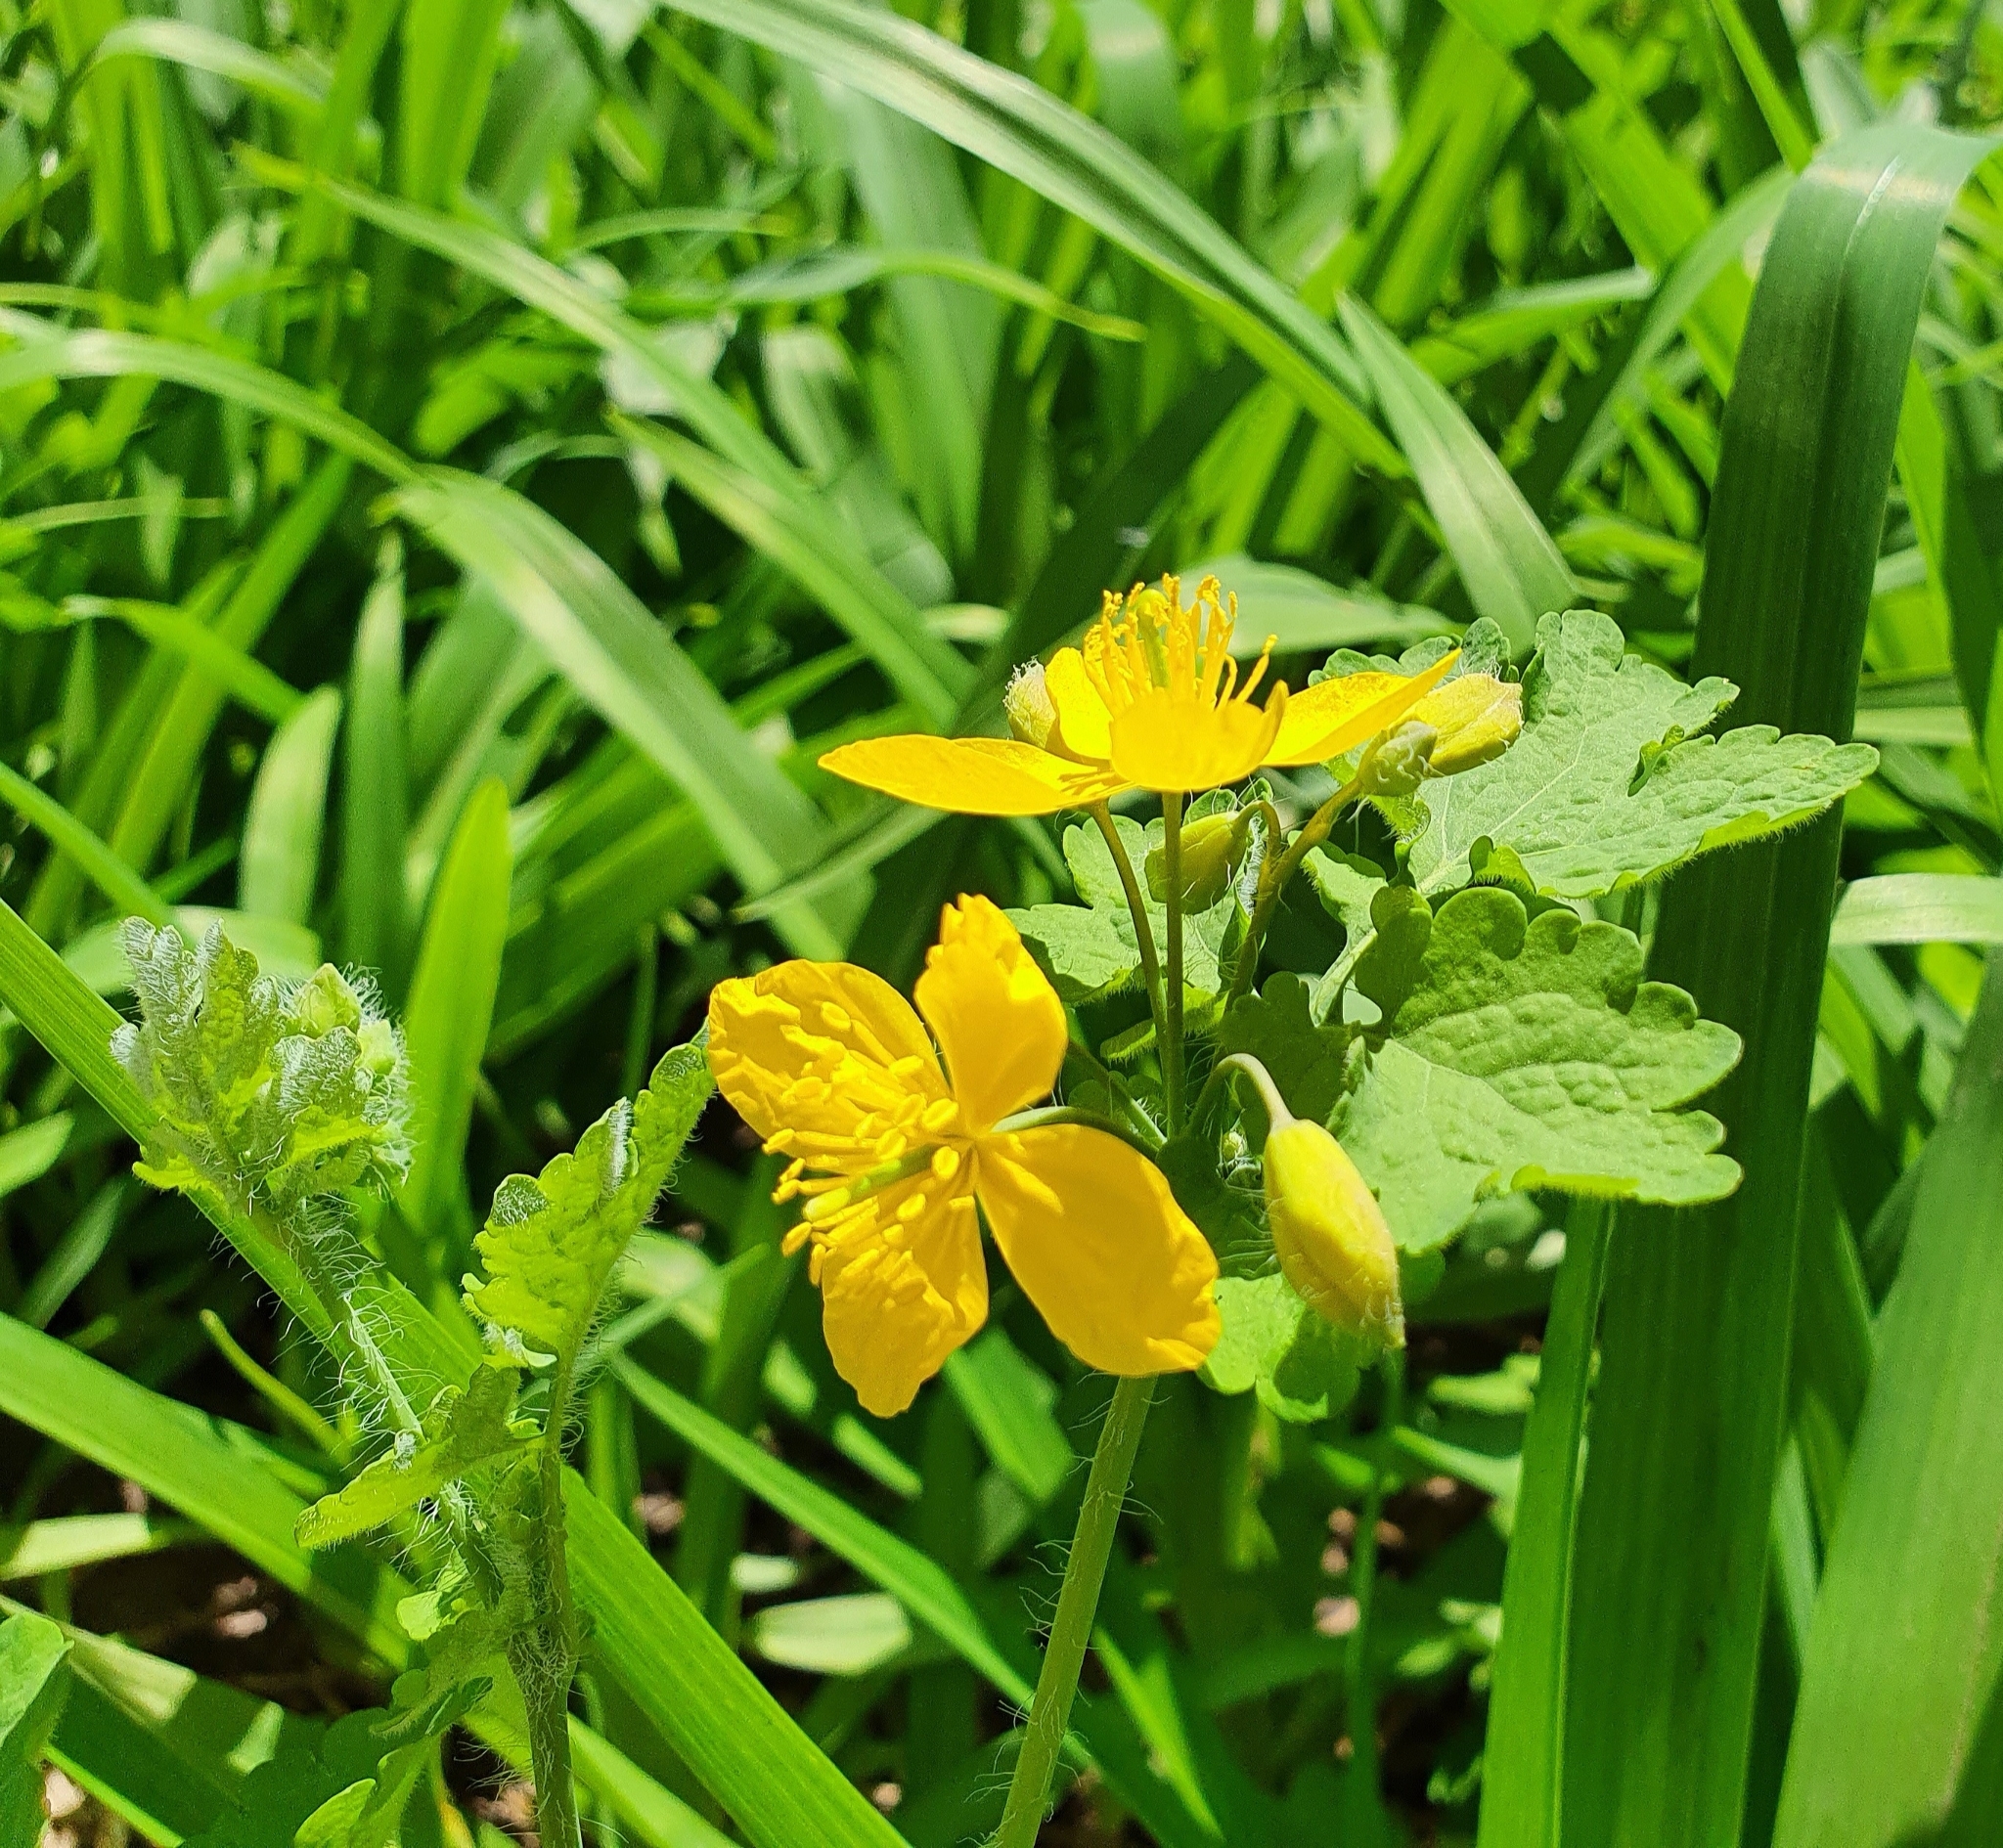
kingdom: Plantae
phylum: Tracheophyta
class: Magnoliopsida
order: Ranunculales
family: Papaveraceae
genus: Chelidonium
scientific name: Chelidonium majus
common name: Greater celandine
